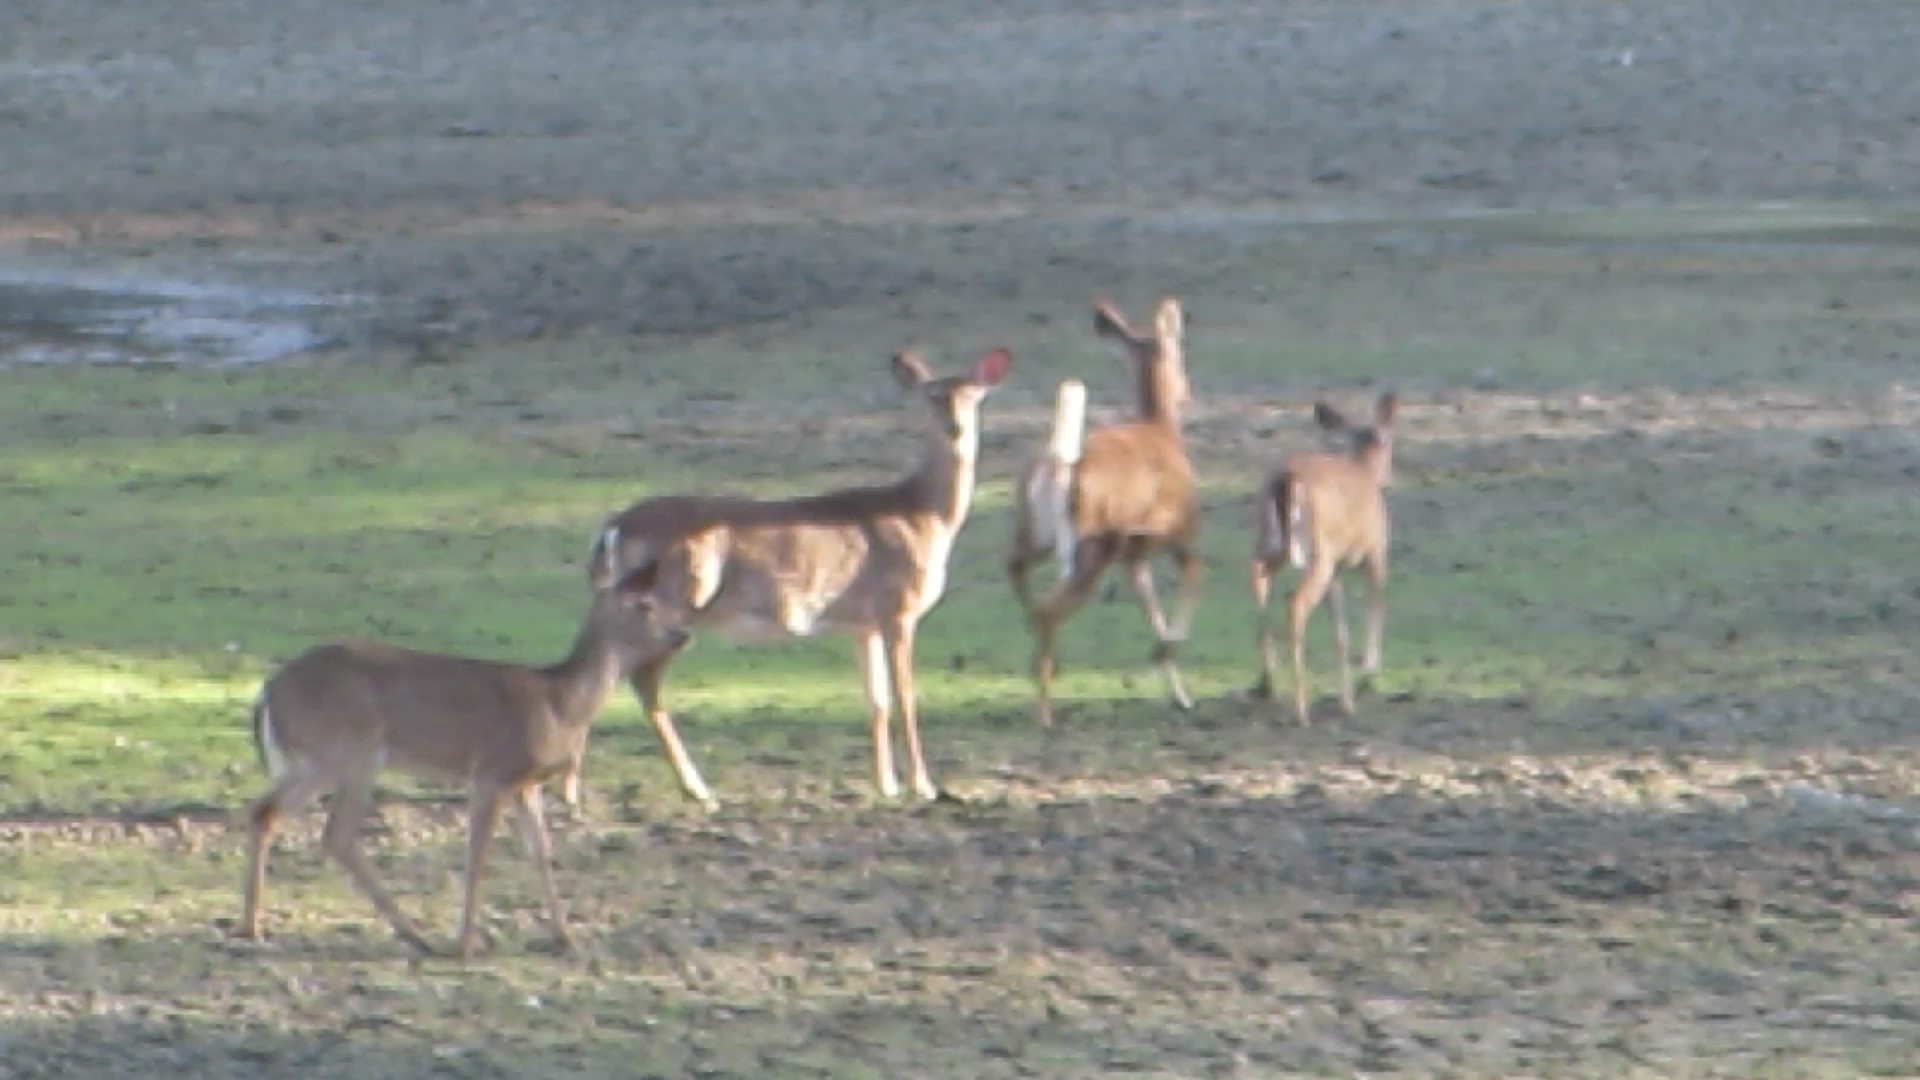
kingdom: Animalia
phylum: Chordata
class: Mammalia
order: Artiodactyla
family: Cervidae
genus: Odocoileus
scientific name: Odocoileus virginianus
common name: White-tailed deer
